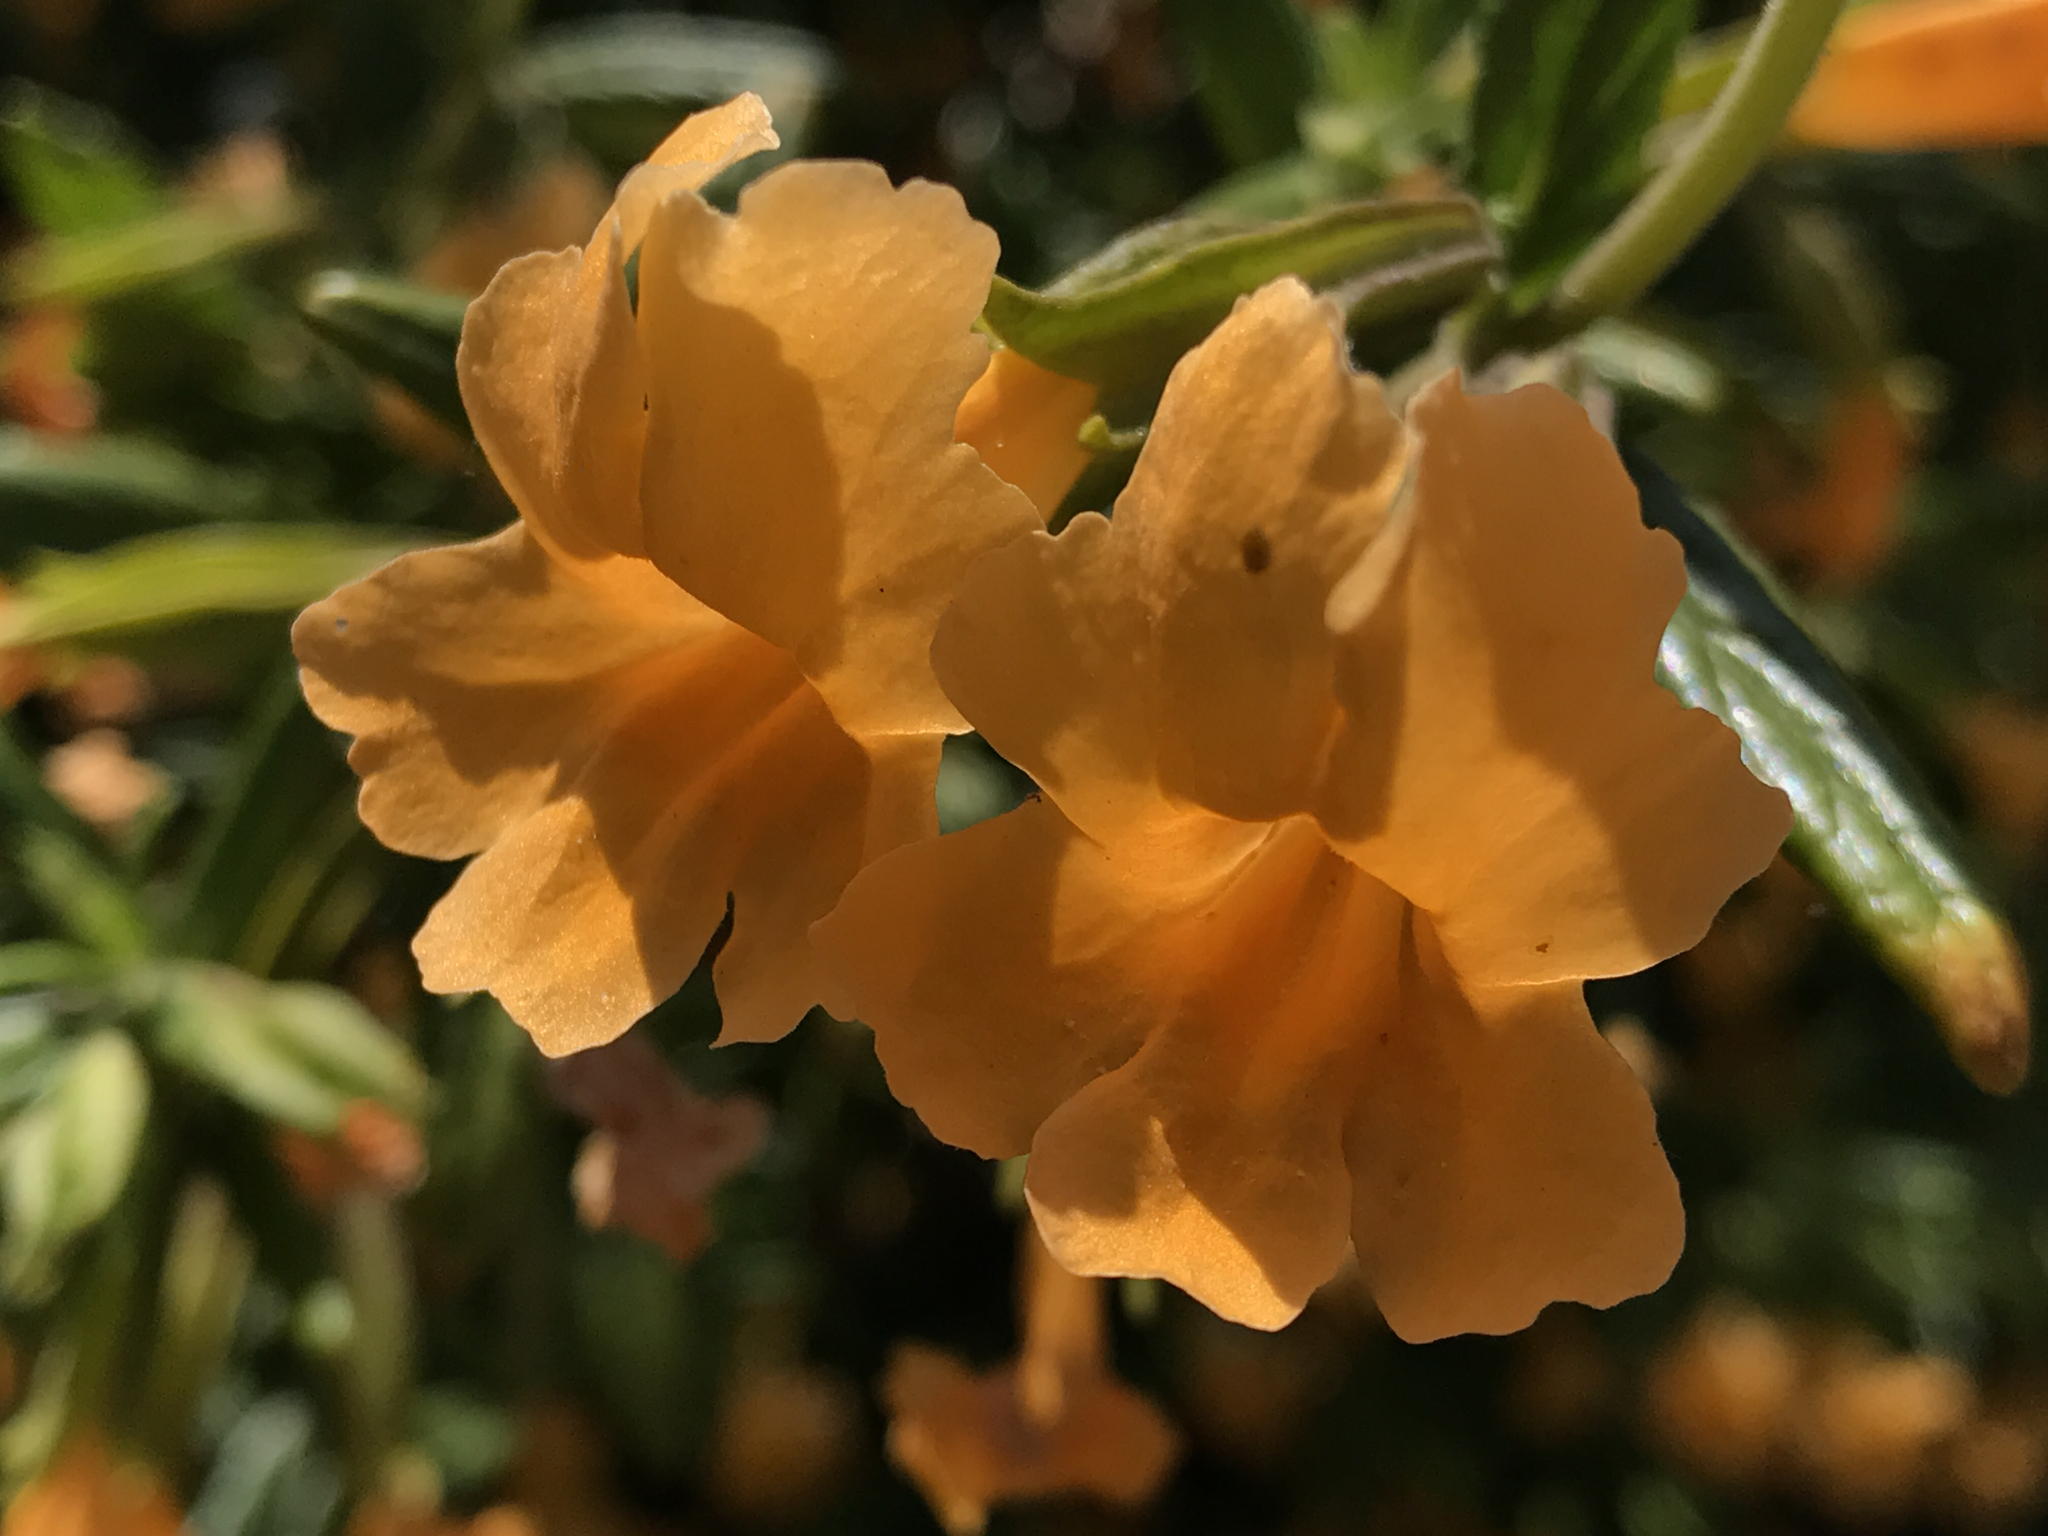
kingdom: Plantae
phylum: Tracheophyta
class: Magnoliopsida
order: Lamiales
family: Phrymaceae
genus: Diplacus
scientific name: Diplacus aurantiacus
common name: Bush monkey-flower
